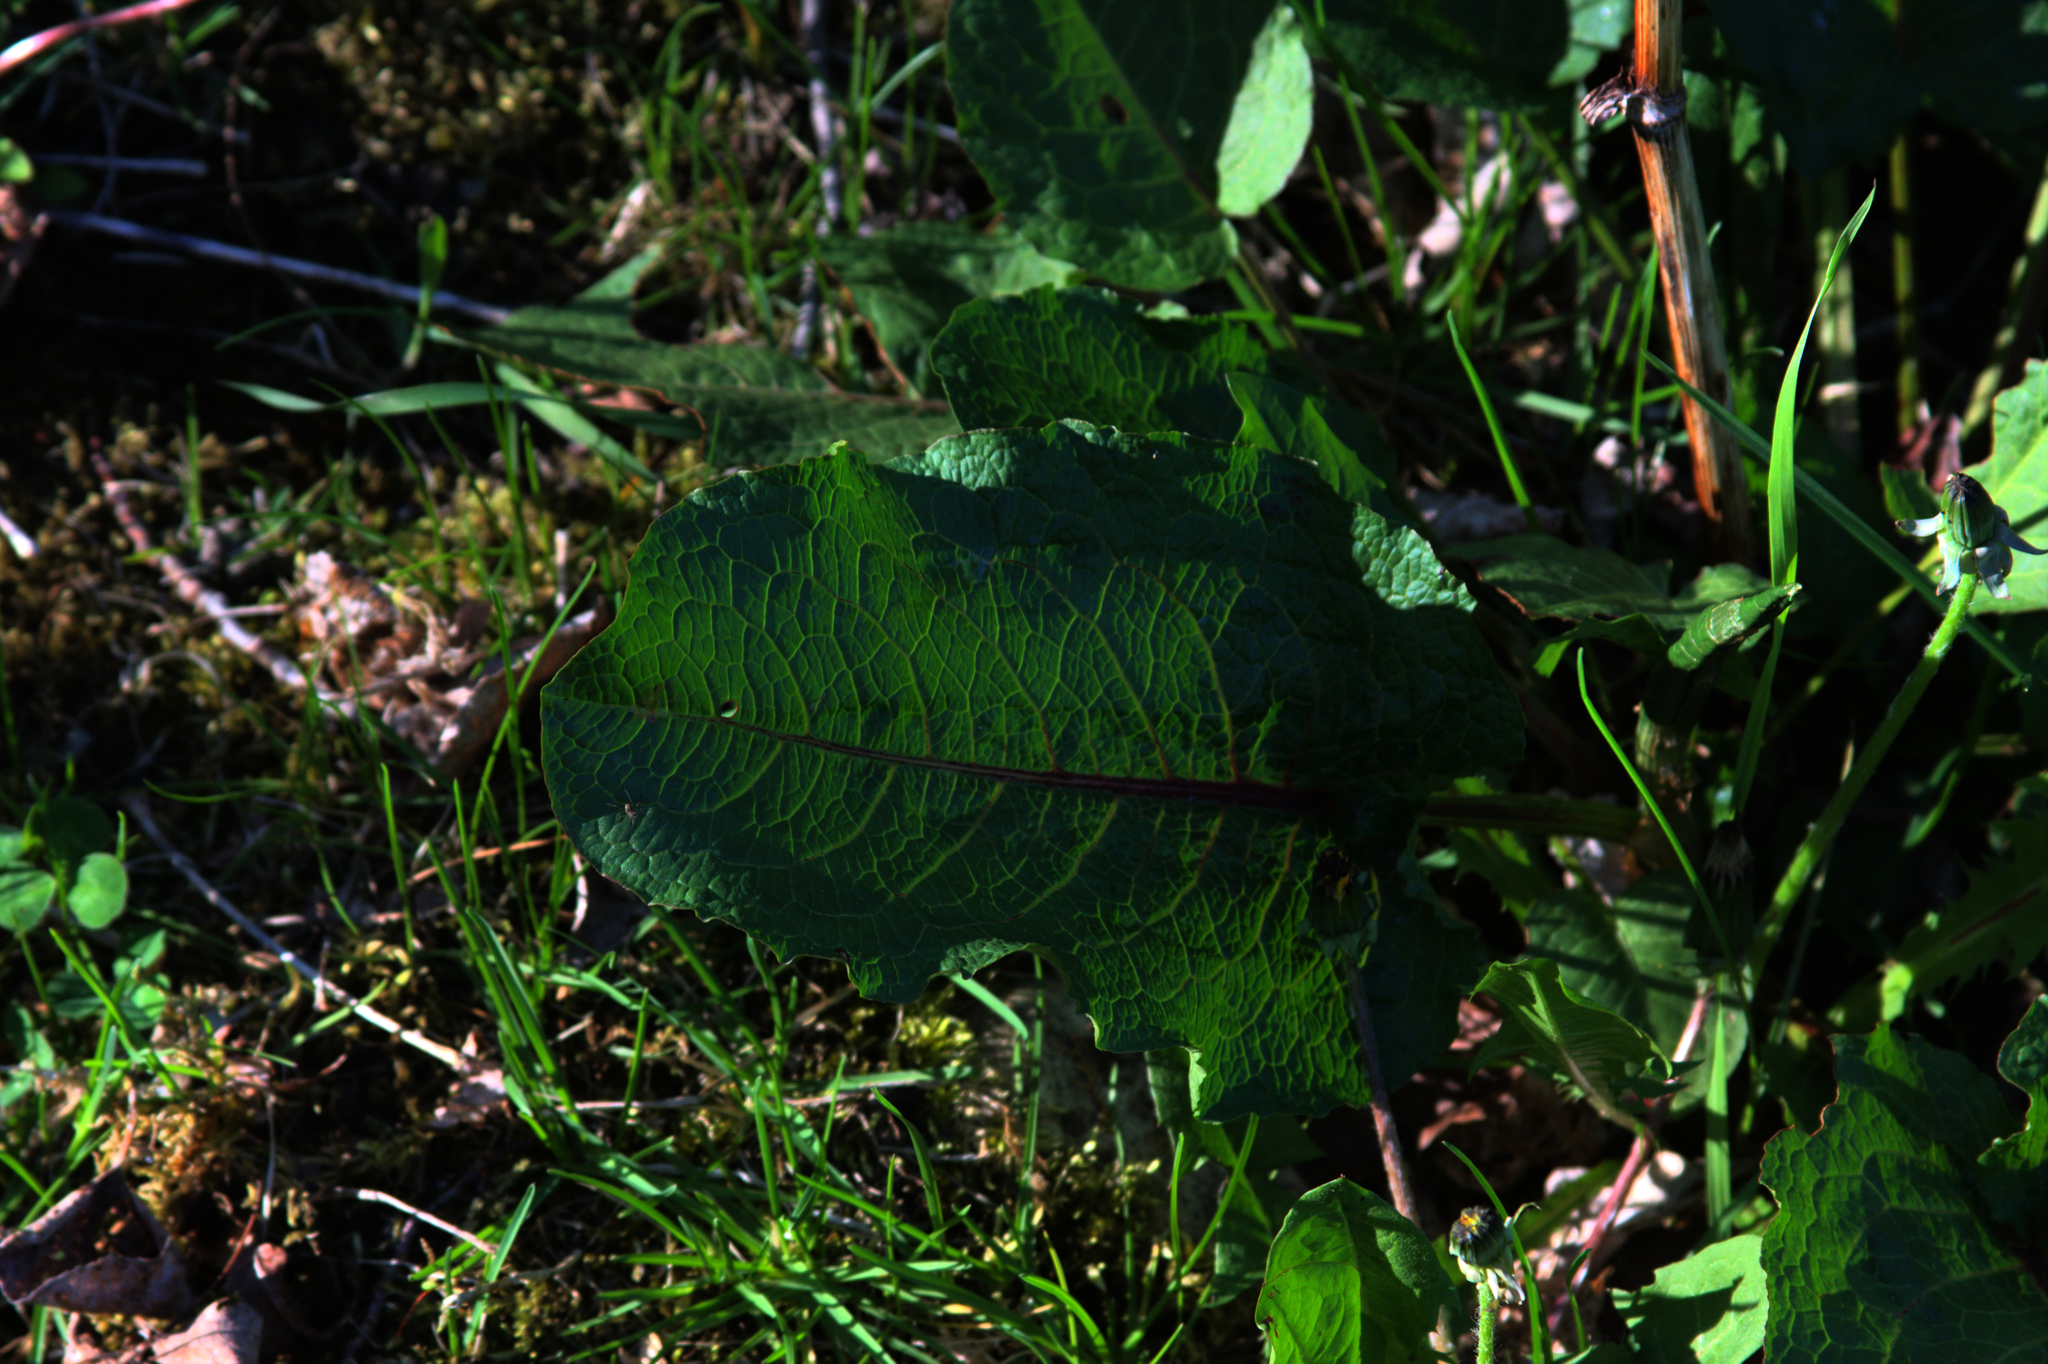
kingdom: Plantae
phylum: Tracheophyta
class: Magnoliopsida
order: Caryophyllales
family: Polygonaceae
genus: Rumex
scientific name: Rumex obtusifolius
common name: Bitter dock
